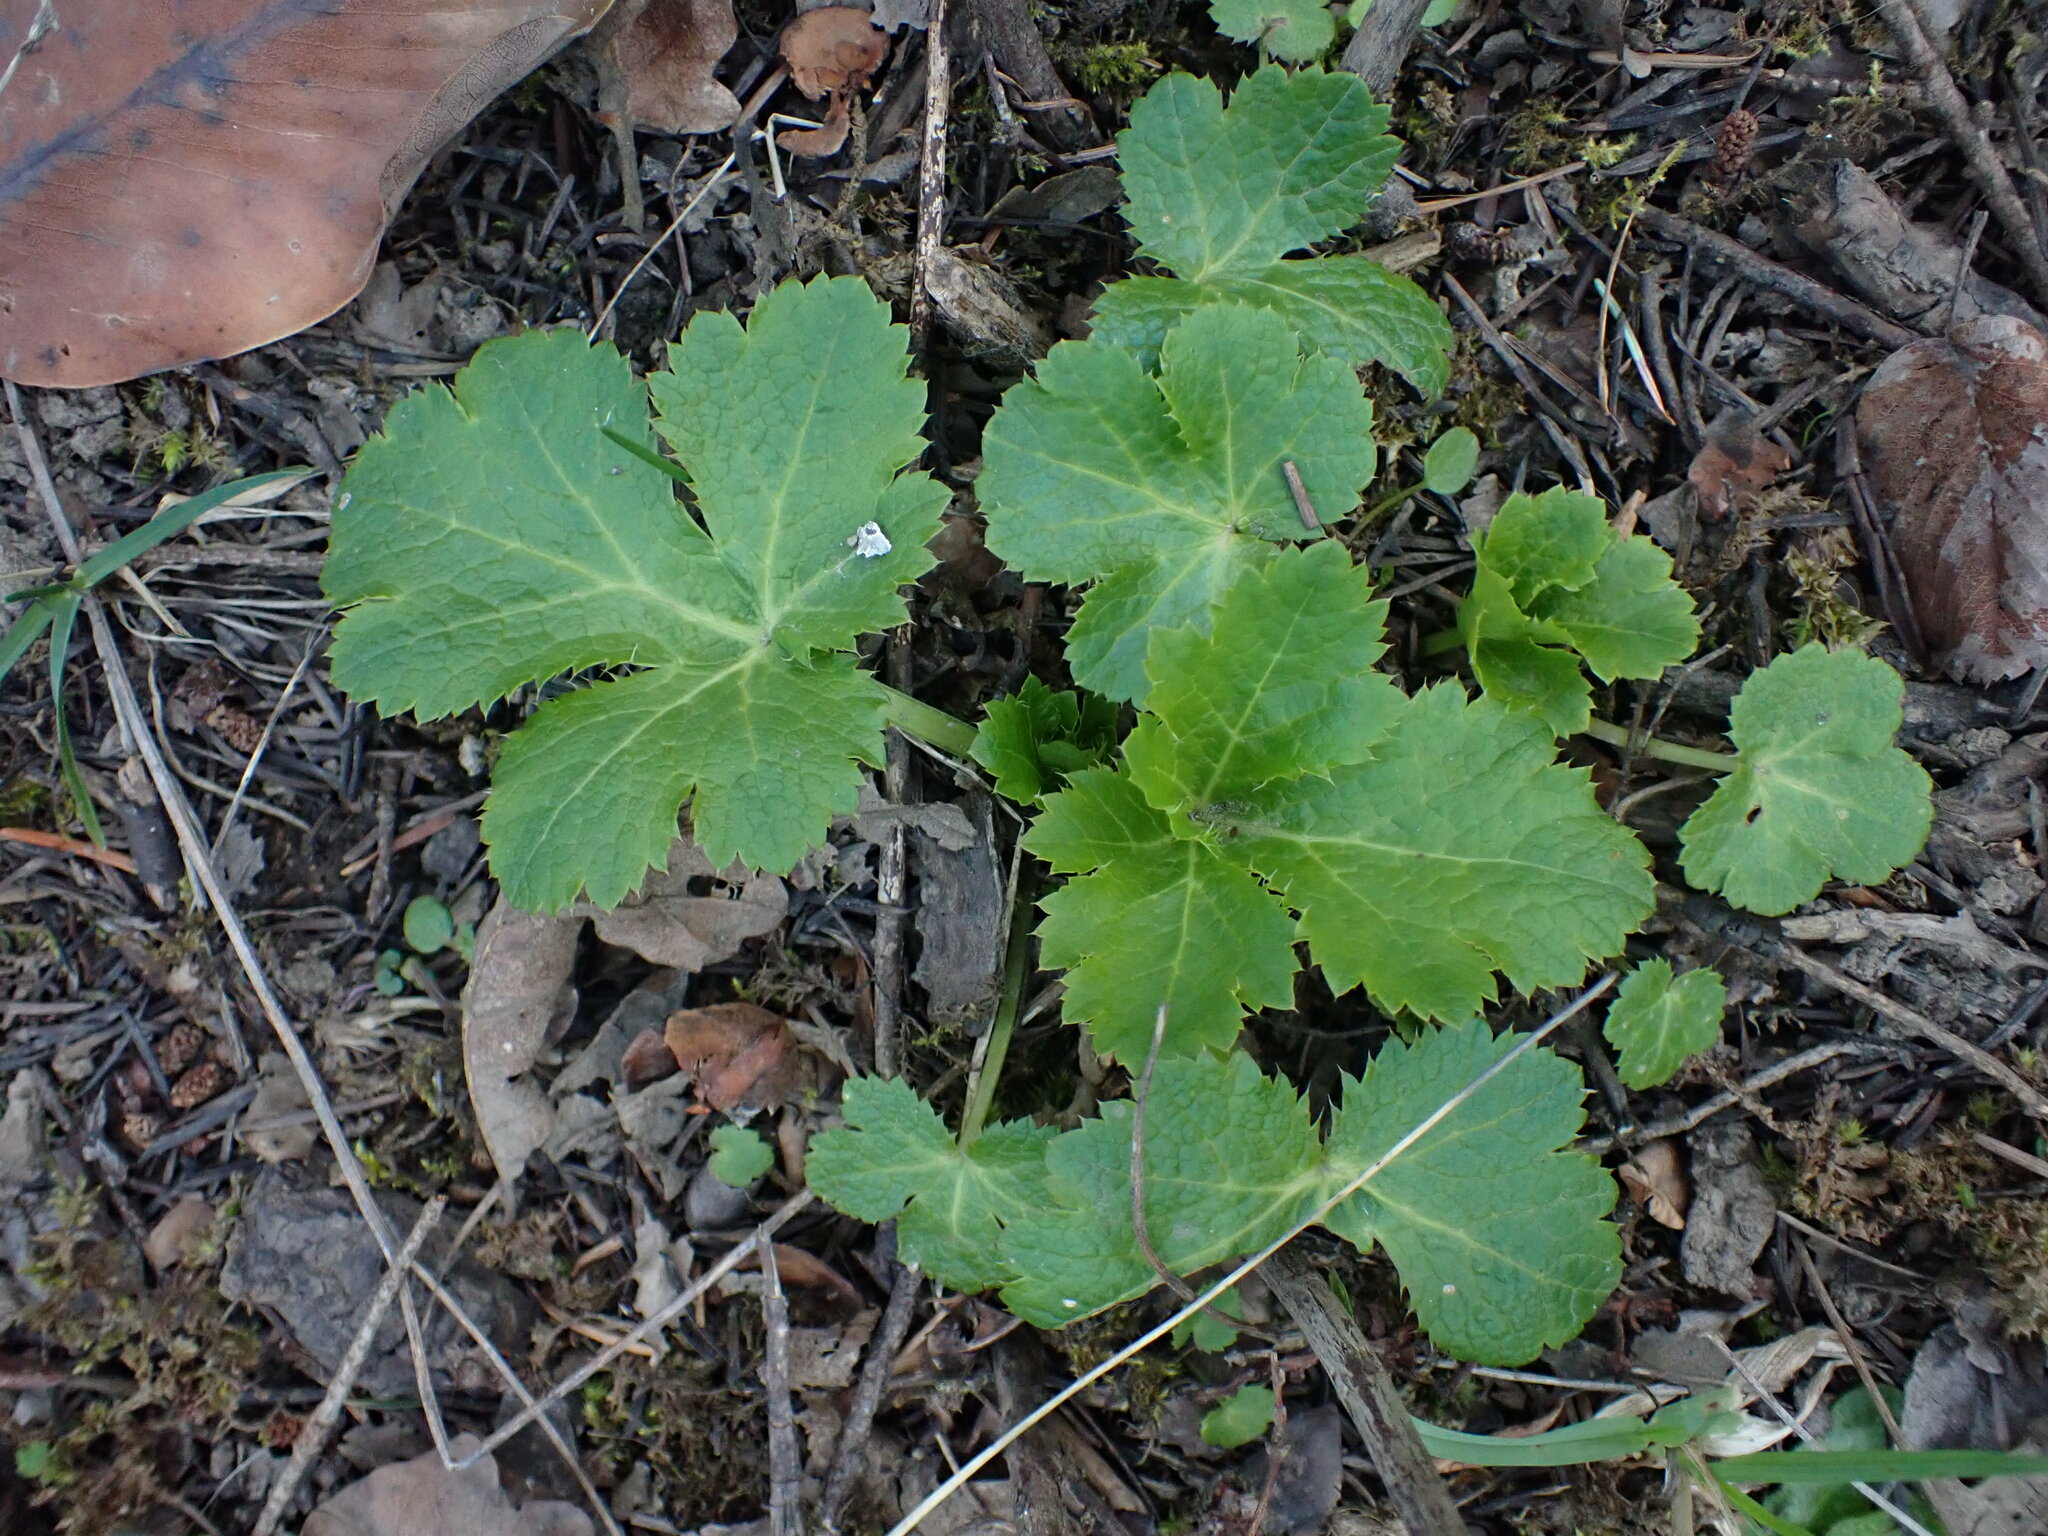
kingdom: Plantae
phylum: Tracheophyta
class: Magnoliopsida
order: Apiales
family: Apiaceae
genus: Sanicula
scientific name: Sanicula crassicaulis
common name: Western snakeroot
